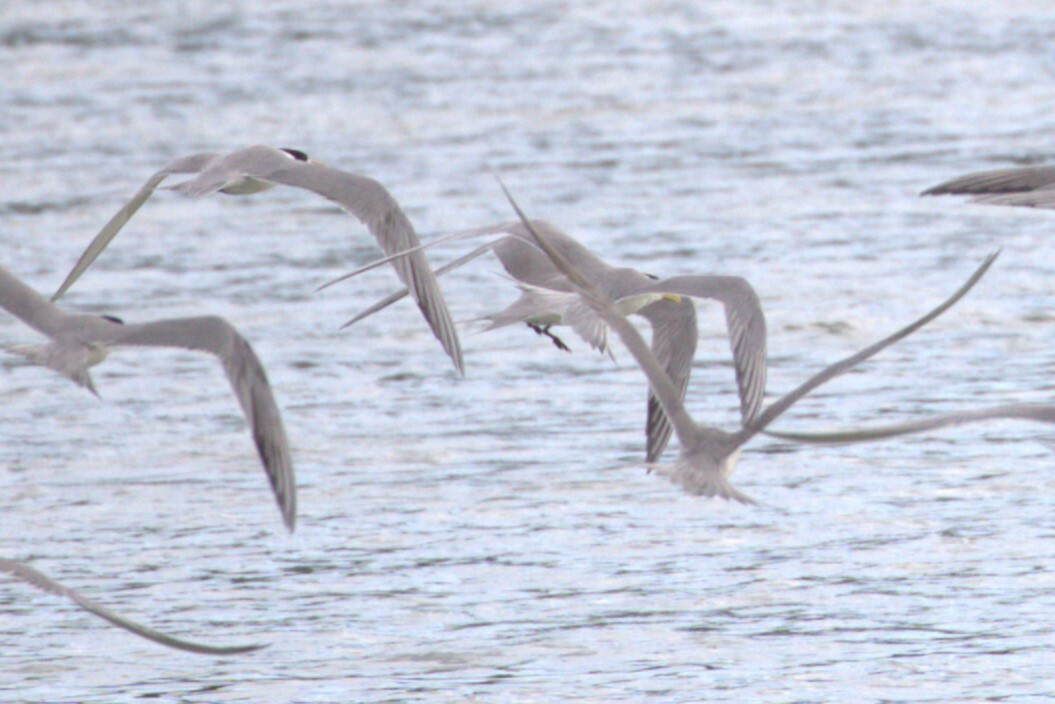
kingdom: Animalia
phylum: Chordata
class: Aves
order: Charadriiformes
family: Laridae
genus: Thalasseus
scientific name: Thalasseus bergii
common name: Greater crested tern
